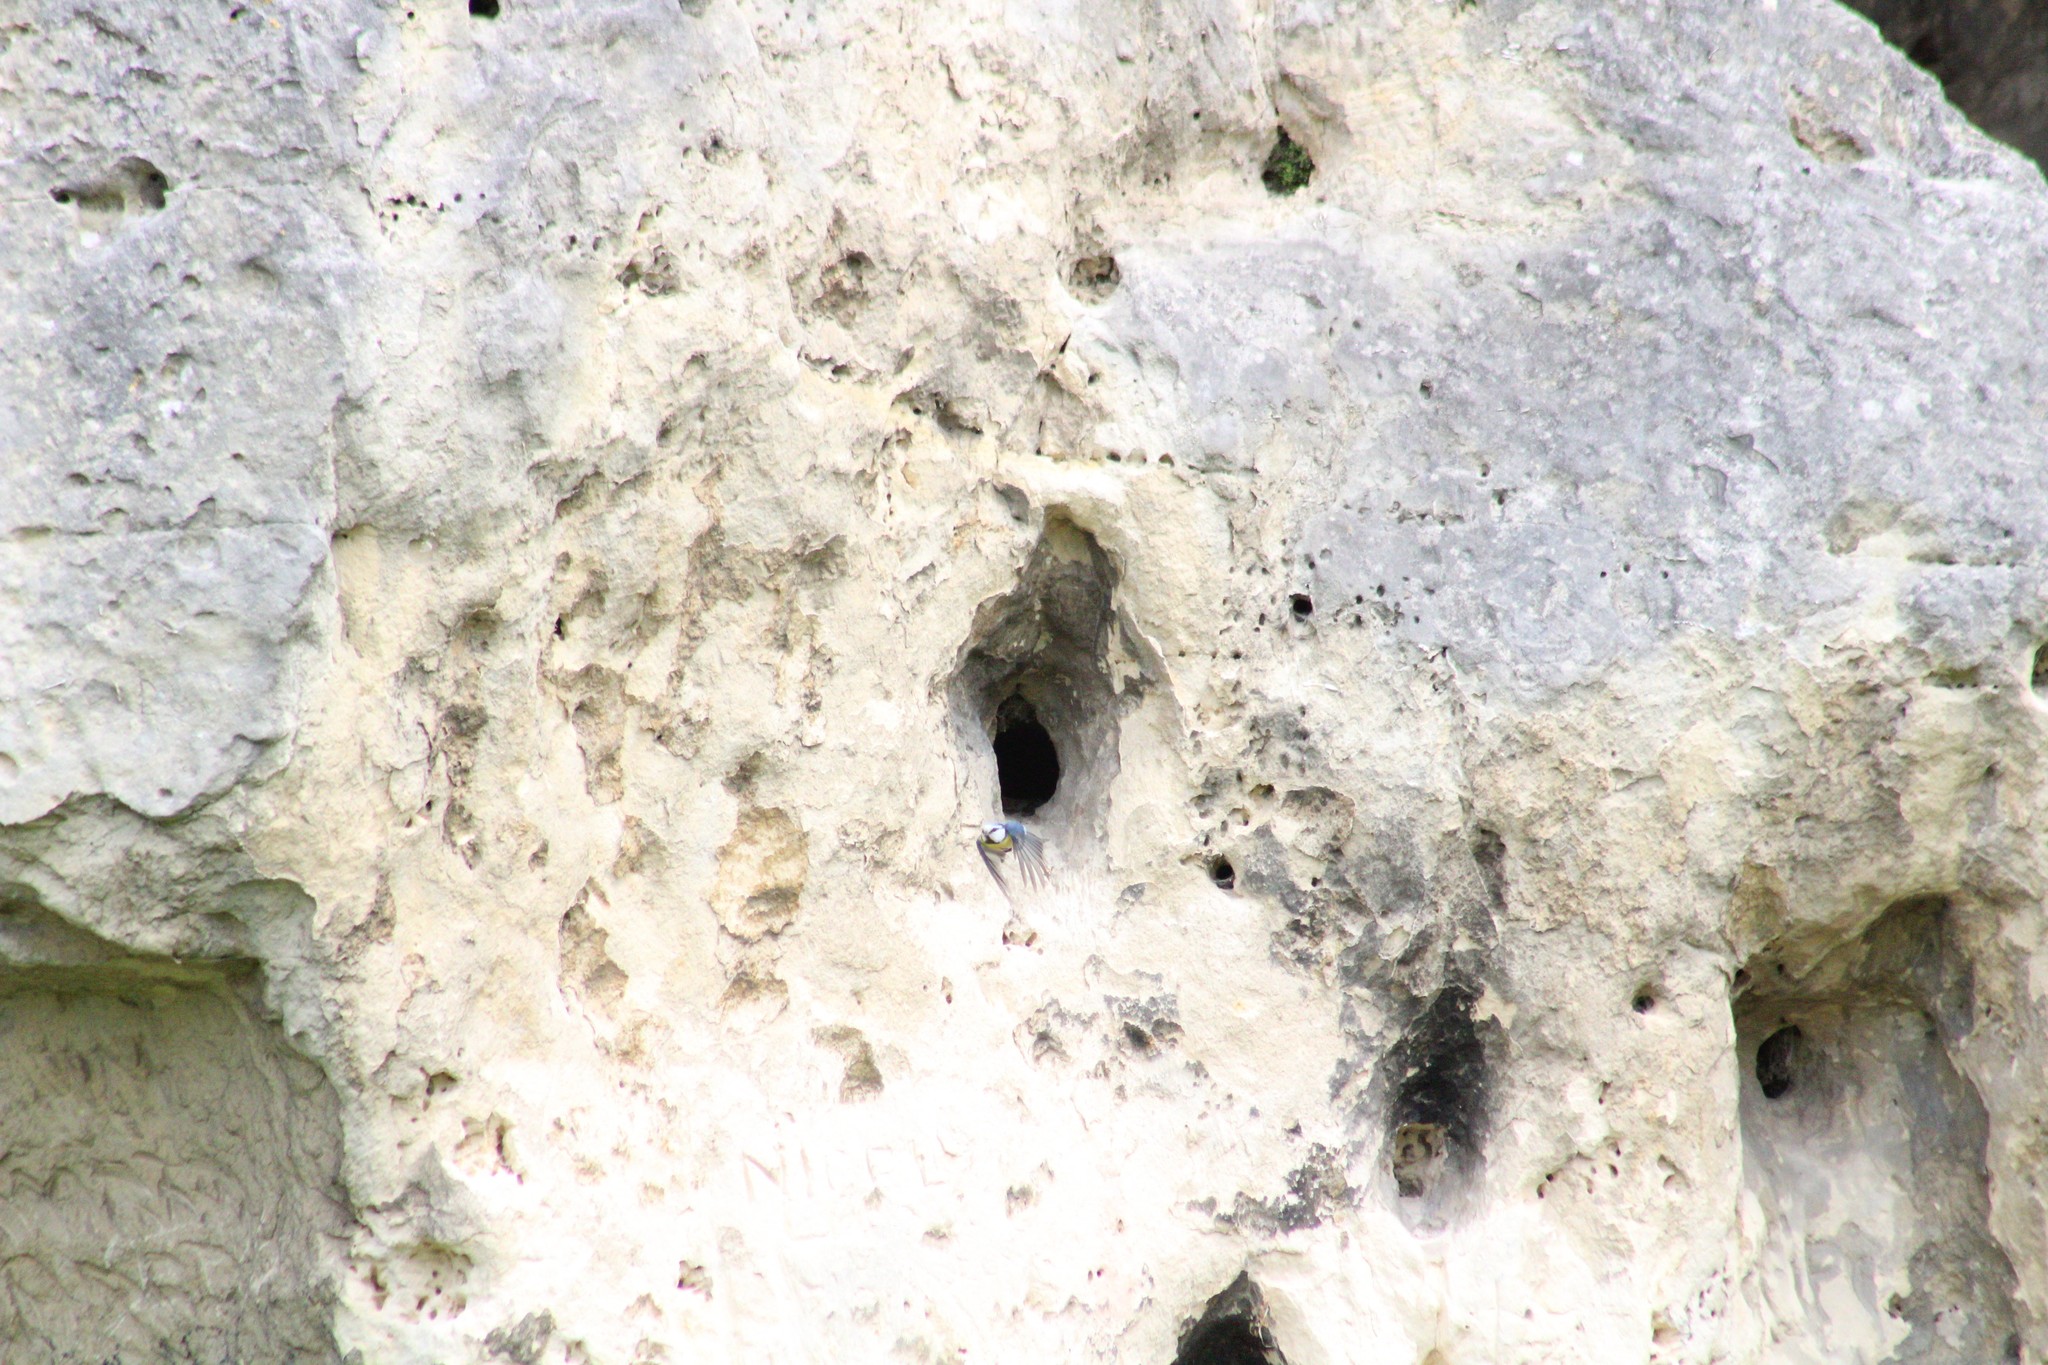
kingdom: Animalia
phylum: Chordata
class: Aves
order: Passeriformes
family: Paridae
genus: Cyanistes
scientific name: Cyanistes caeruleus
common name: Eurasian blue tit
